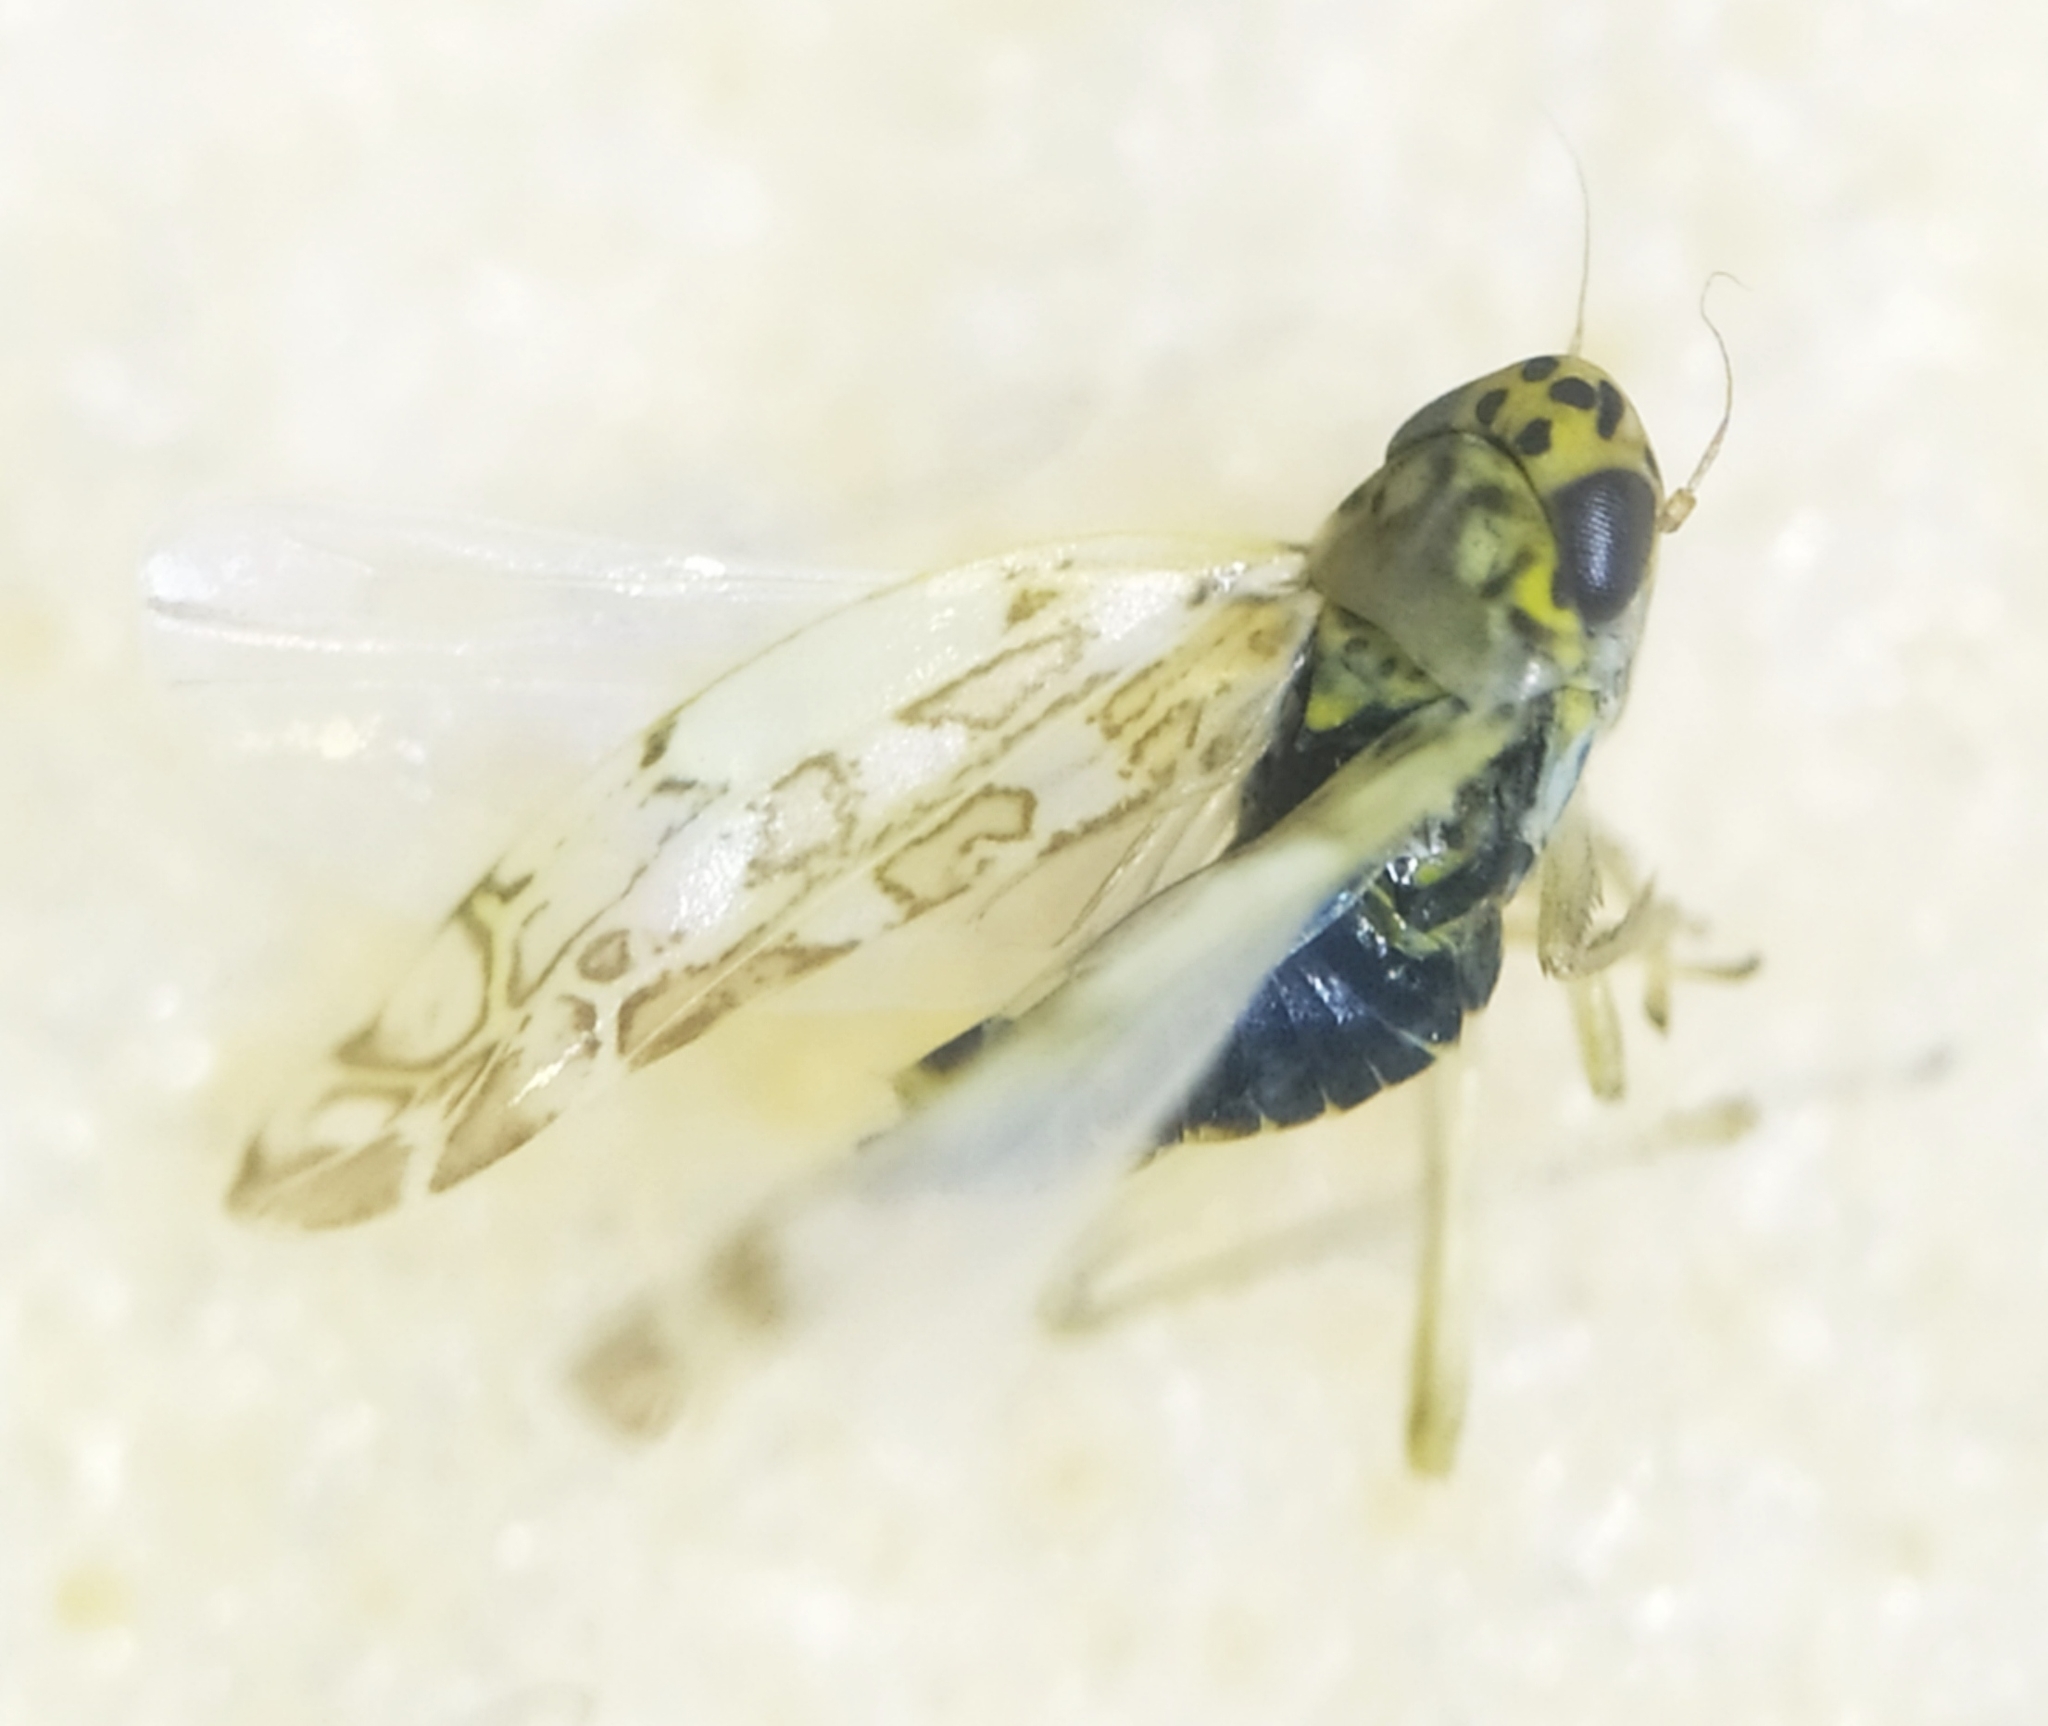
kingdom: Animalia
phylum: Arthropoda
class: Insecta
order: Hemiptera
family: Cicadellidae
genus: Eupteryx
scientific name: Eupteryx decemnotata
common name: Ligurian leafhopper
